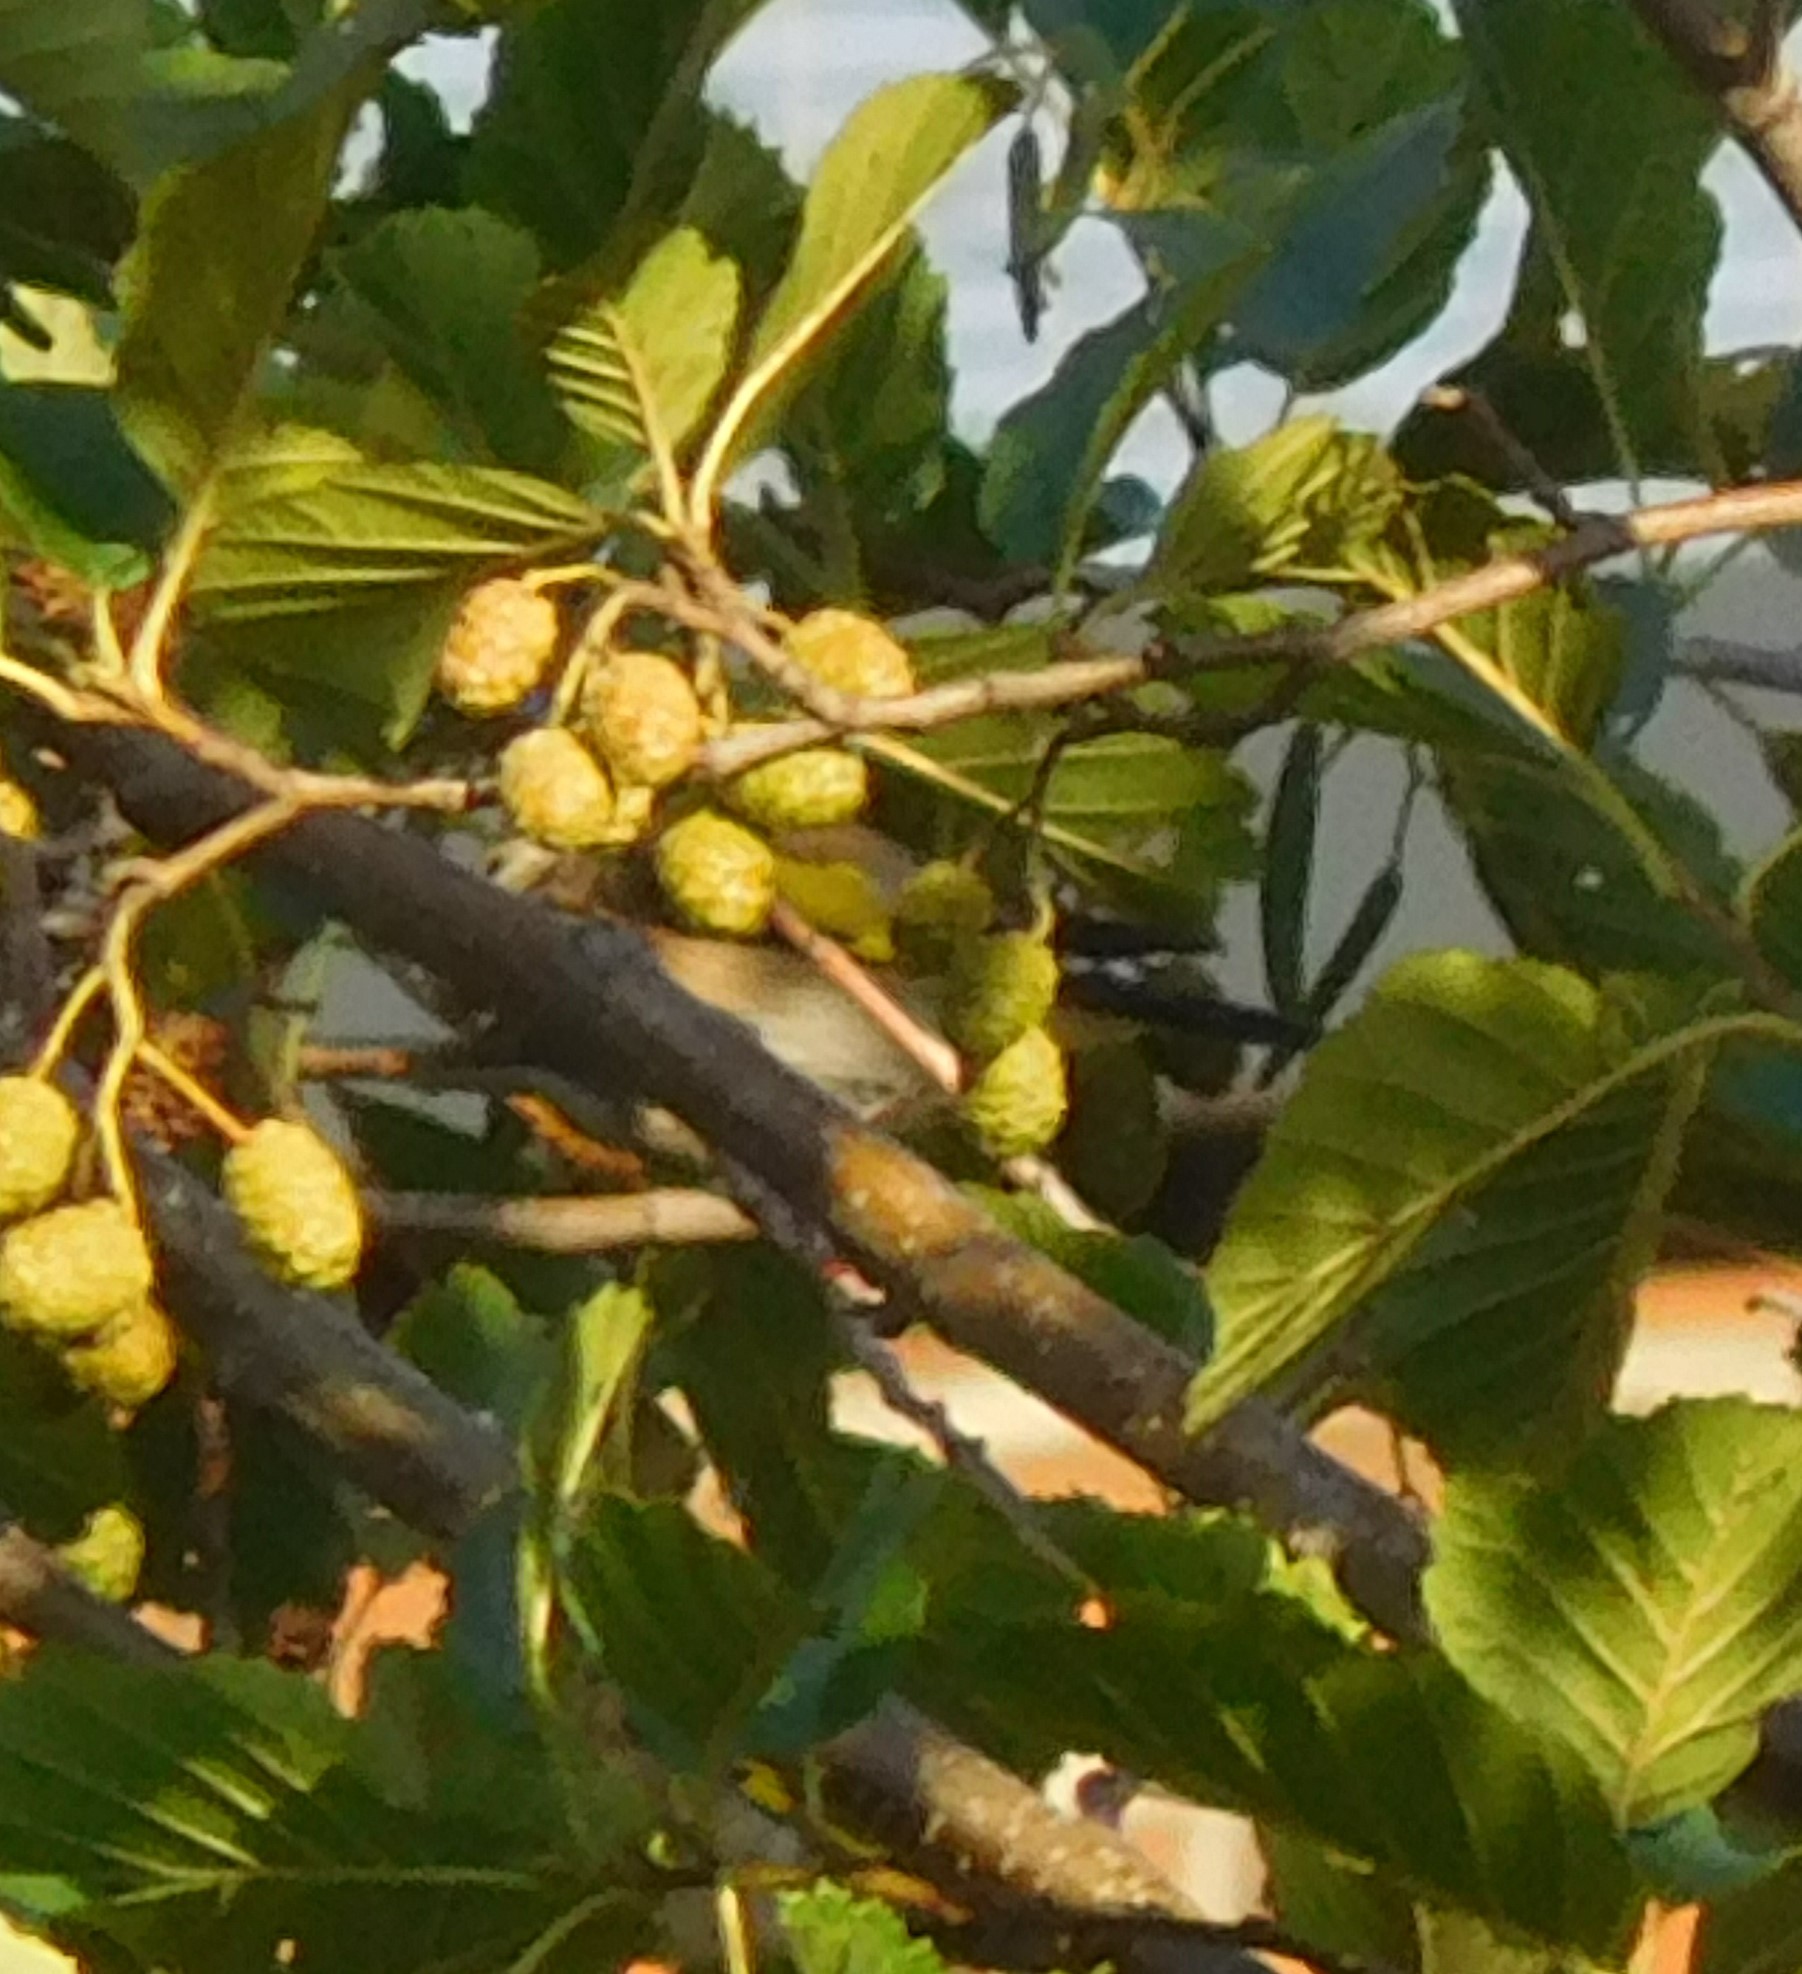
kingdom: Animalia
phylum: Chordata
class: Aves
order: Passeriformes
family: Fringillidae
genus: Carduelis
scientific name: Carduelis carduelis
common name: European goldfinch
